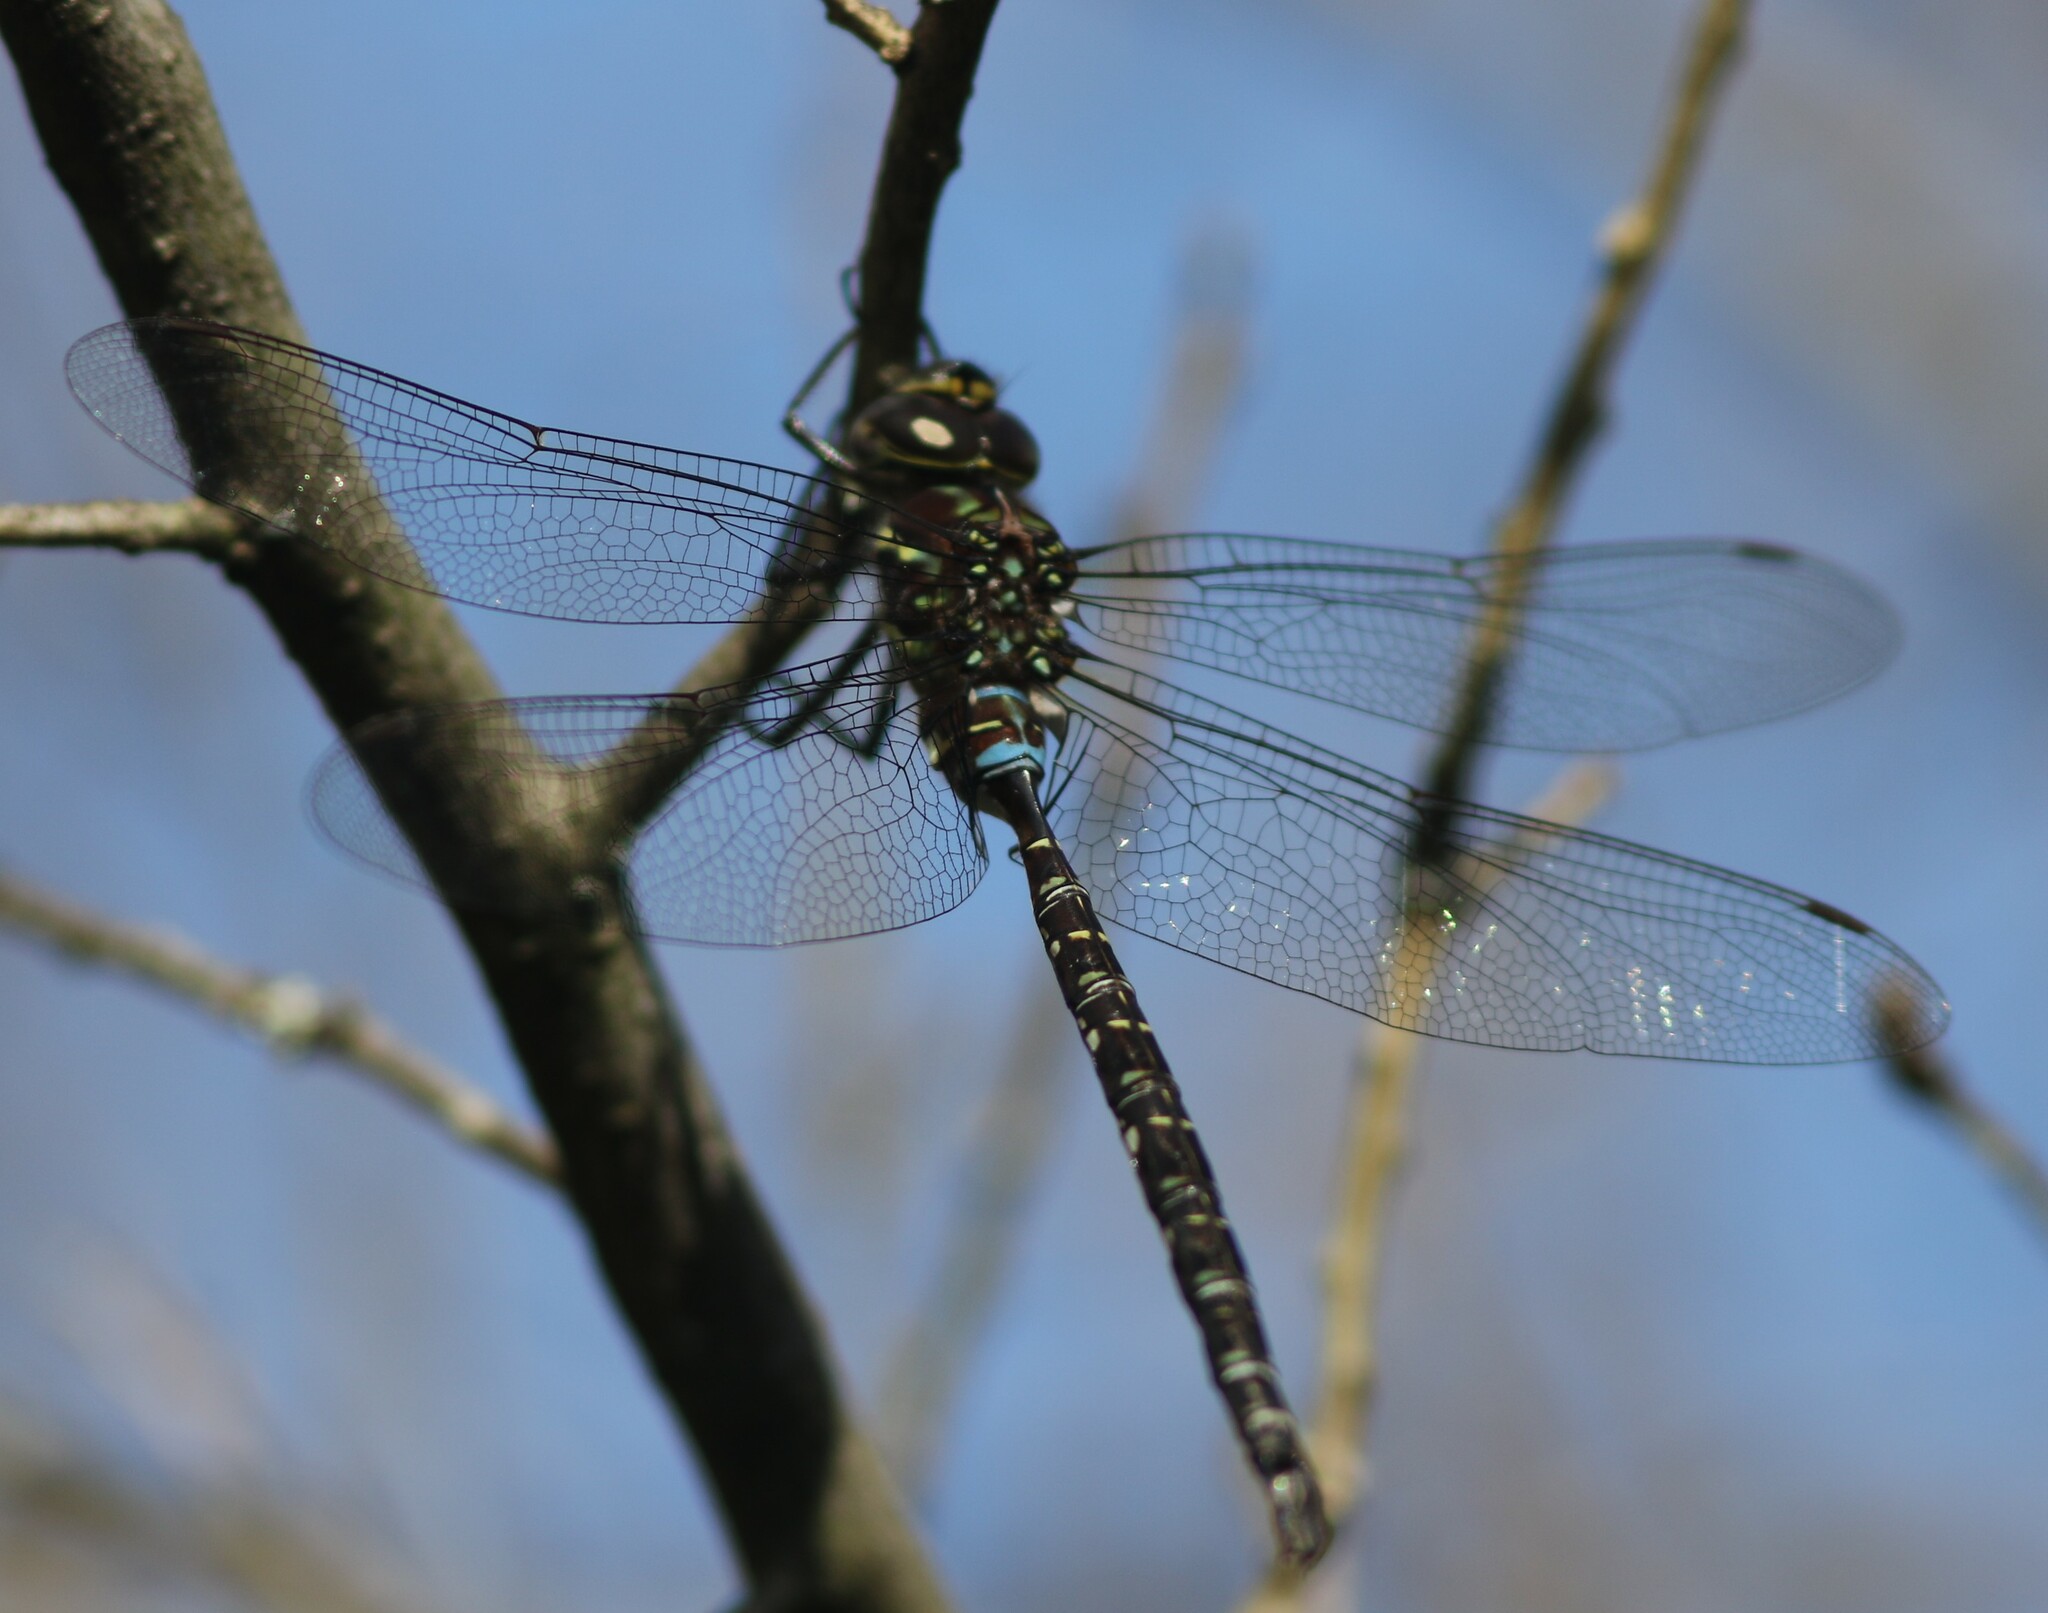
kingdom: Animalia
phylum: Arthropoda
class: Insecta
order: Odonata
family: Aeshnidae
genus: Aeshna
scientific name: Aeshna umbrosa
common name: Shadow darner
